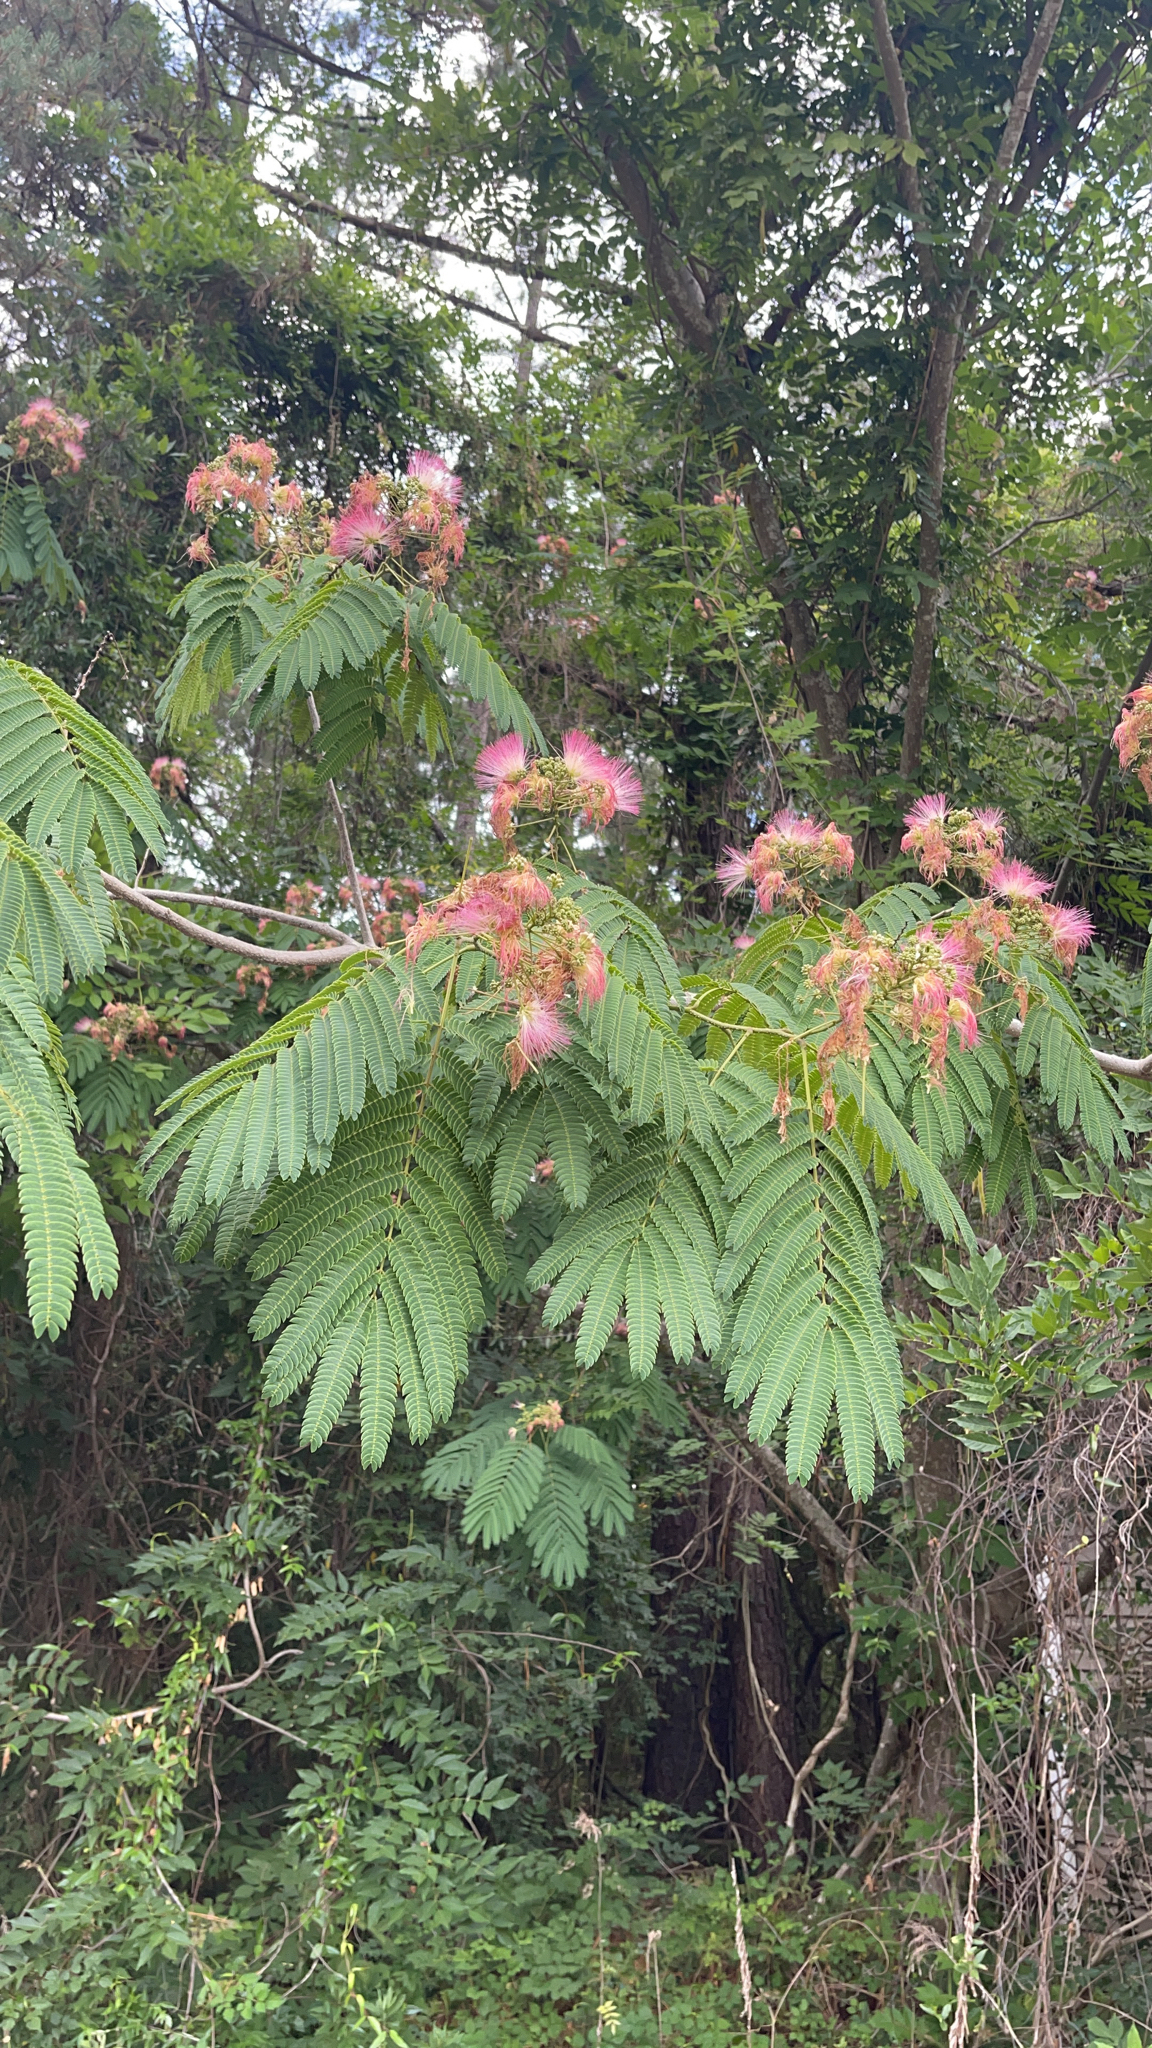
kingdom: Plantae
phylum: Tracheophyta
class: Magnoliopsida
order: Fabales
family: Fabaceae
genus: Albizia
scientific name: Albizia julibrissin
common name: Silktree
